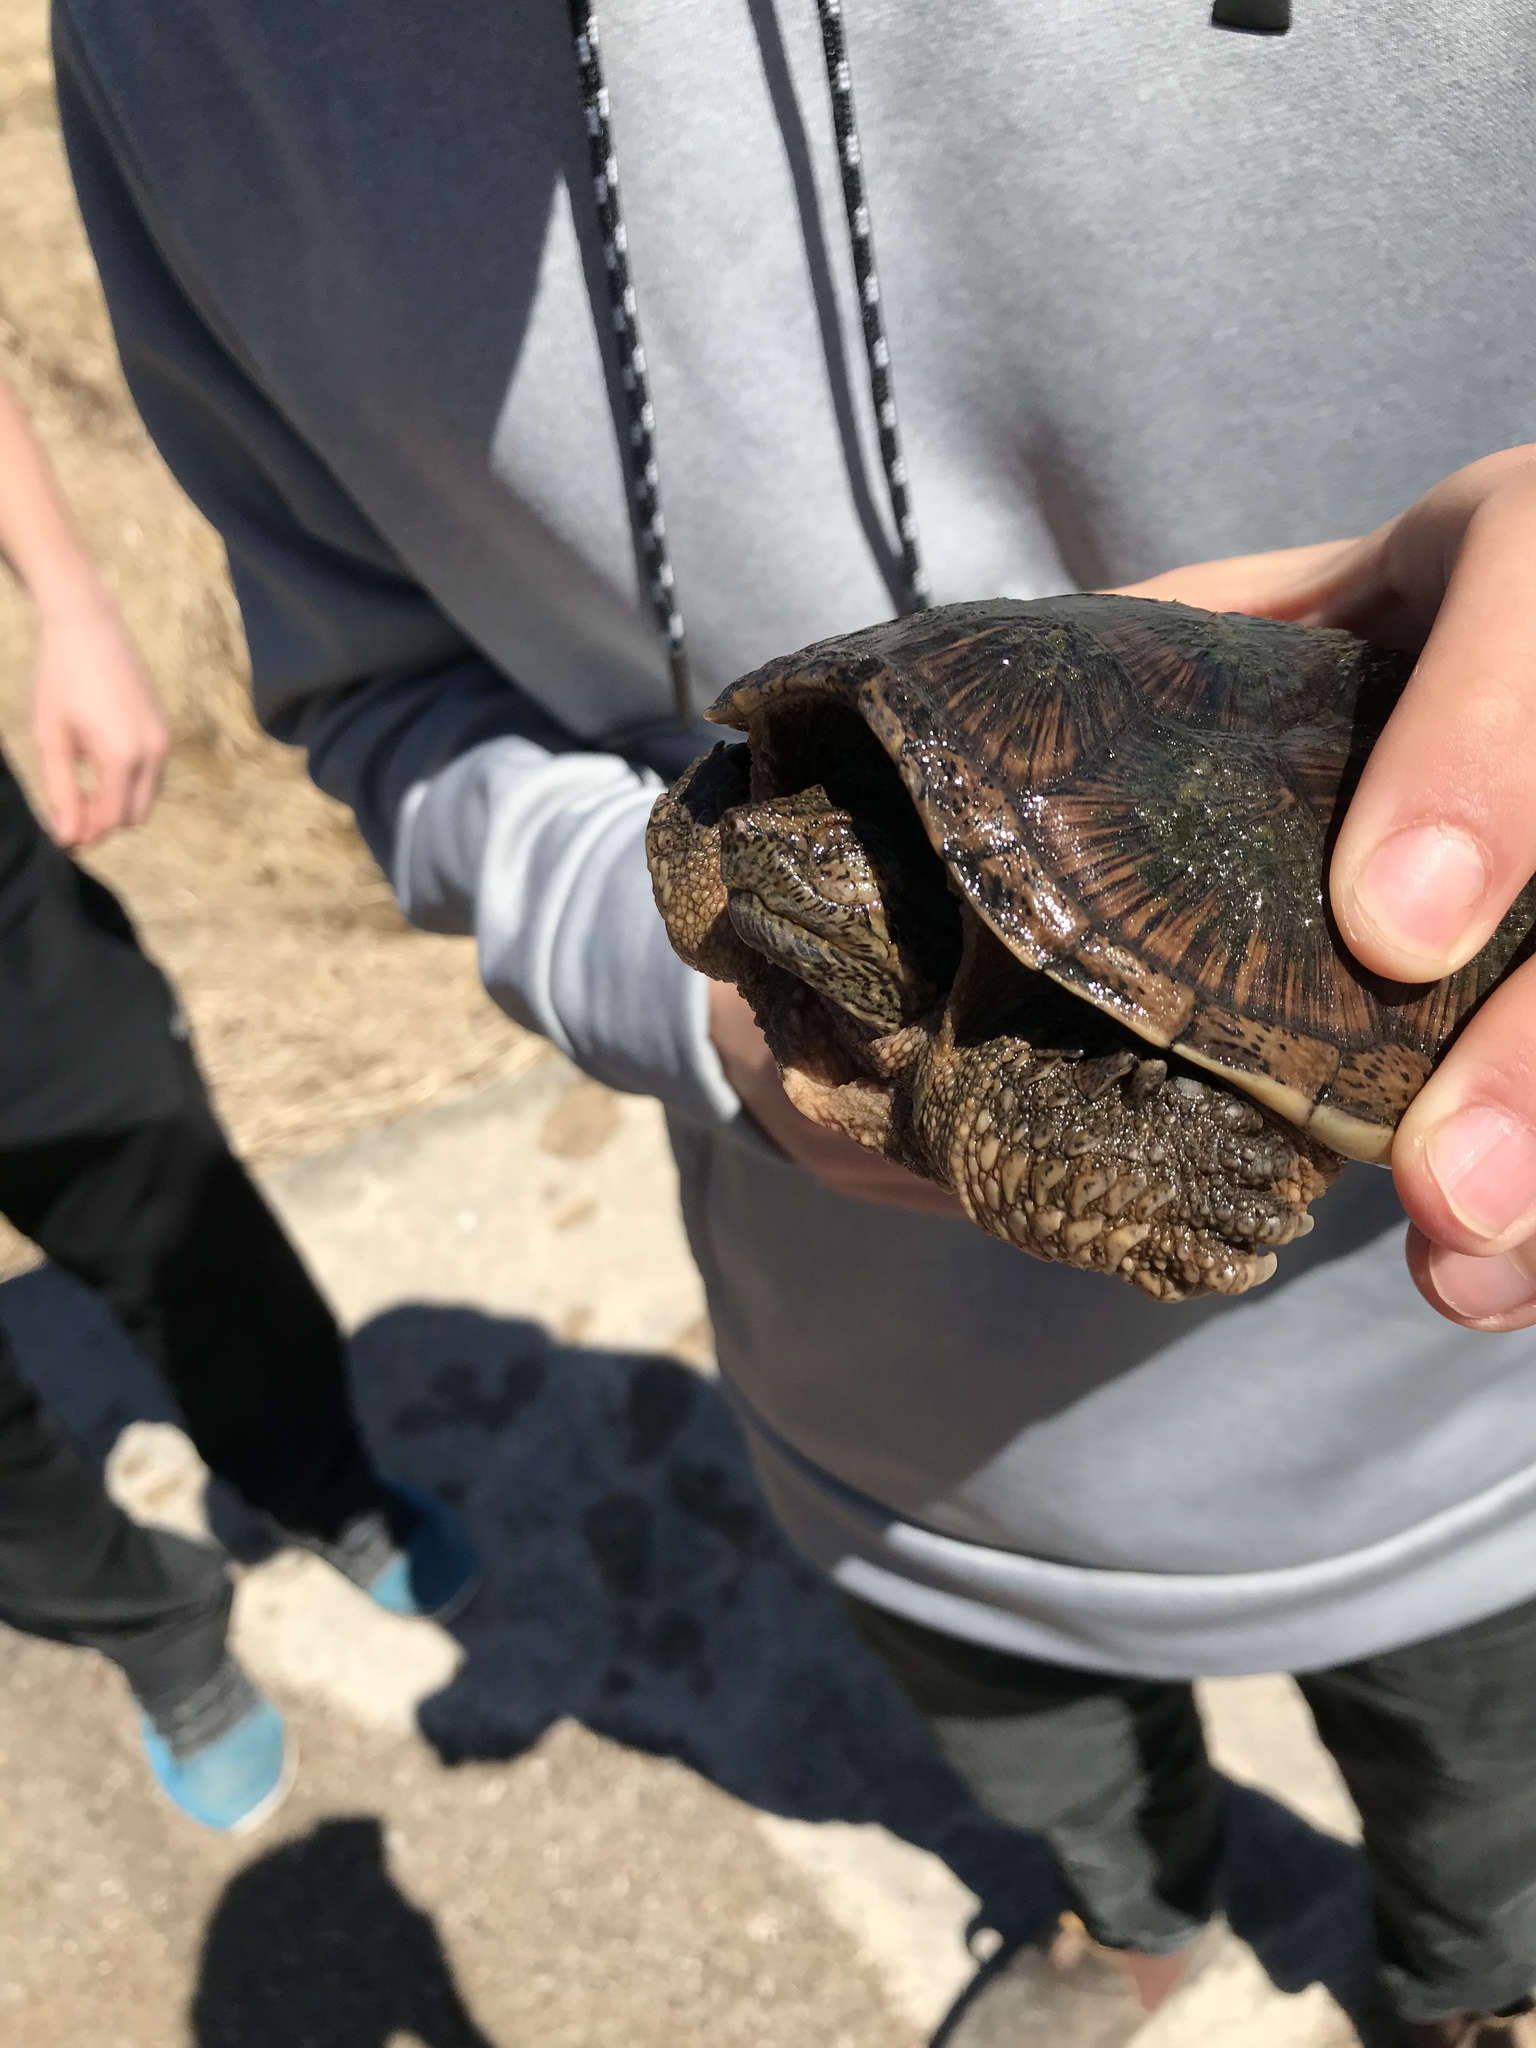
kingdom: Animalia
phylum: Chordata
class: Testudines
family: Chelydridae
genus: Chelydra
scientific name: Chelydra serpentina
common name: Common snapping turtle
